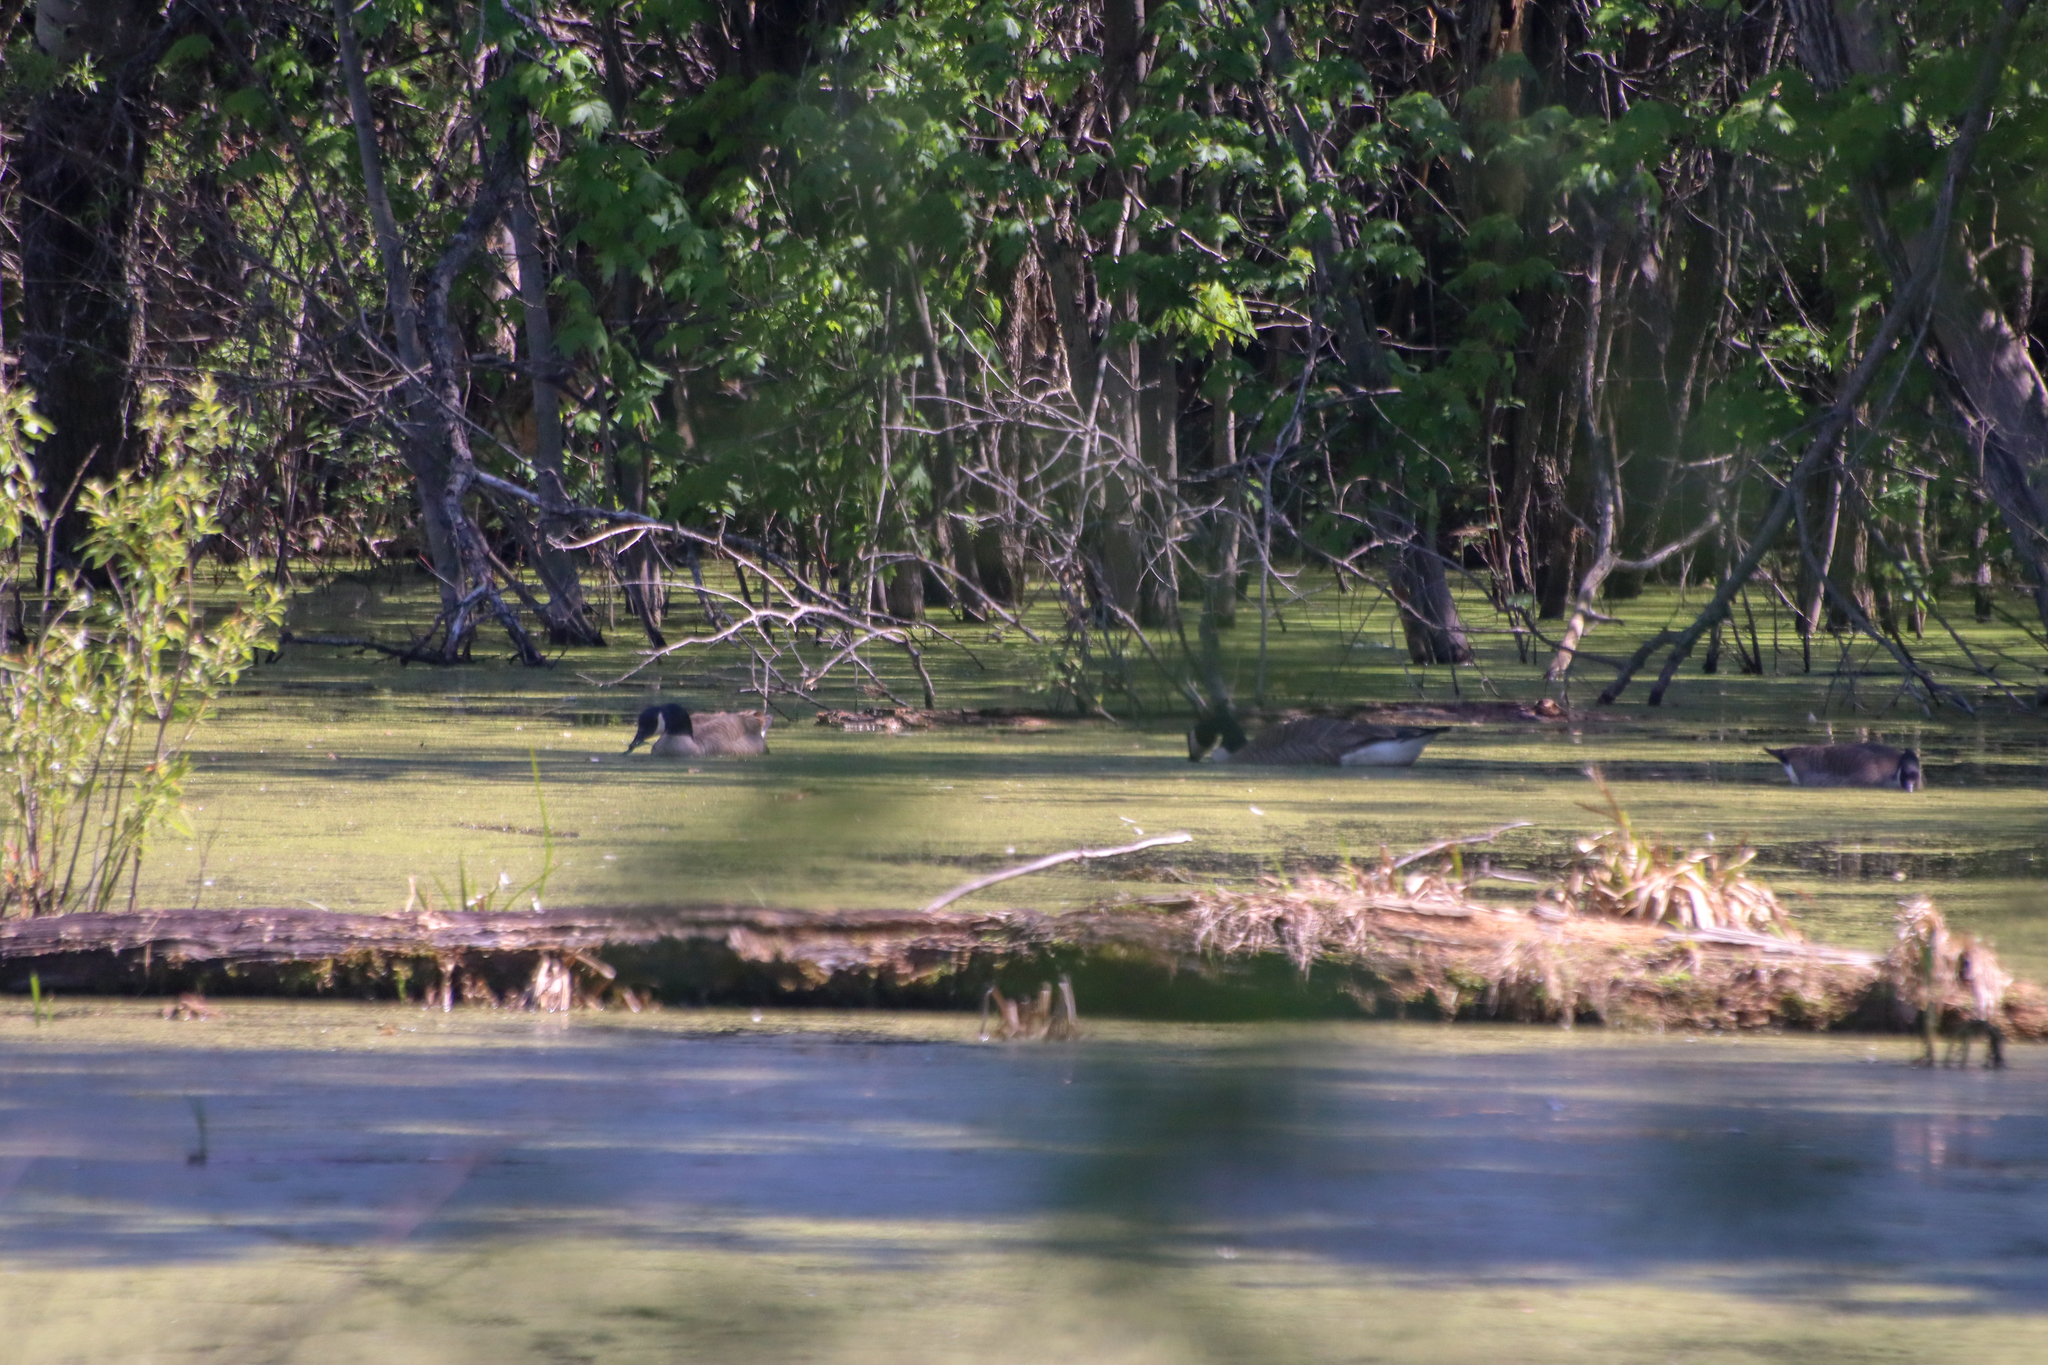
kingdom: Animalia
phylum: Chordata
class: Aves
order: Anseriformes
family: Anatidae
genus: Branta
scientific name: Branta canadensis
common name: Canada goose
